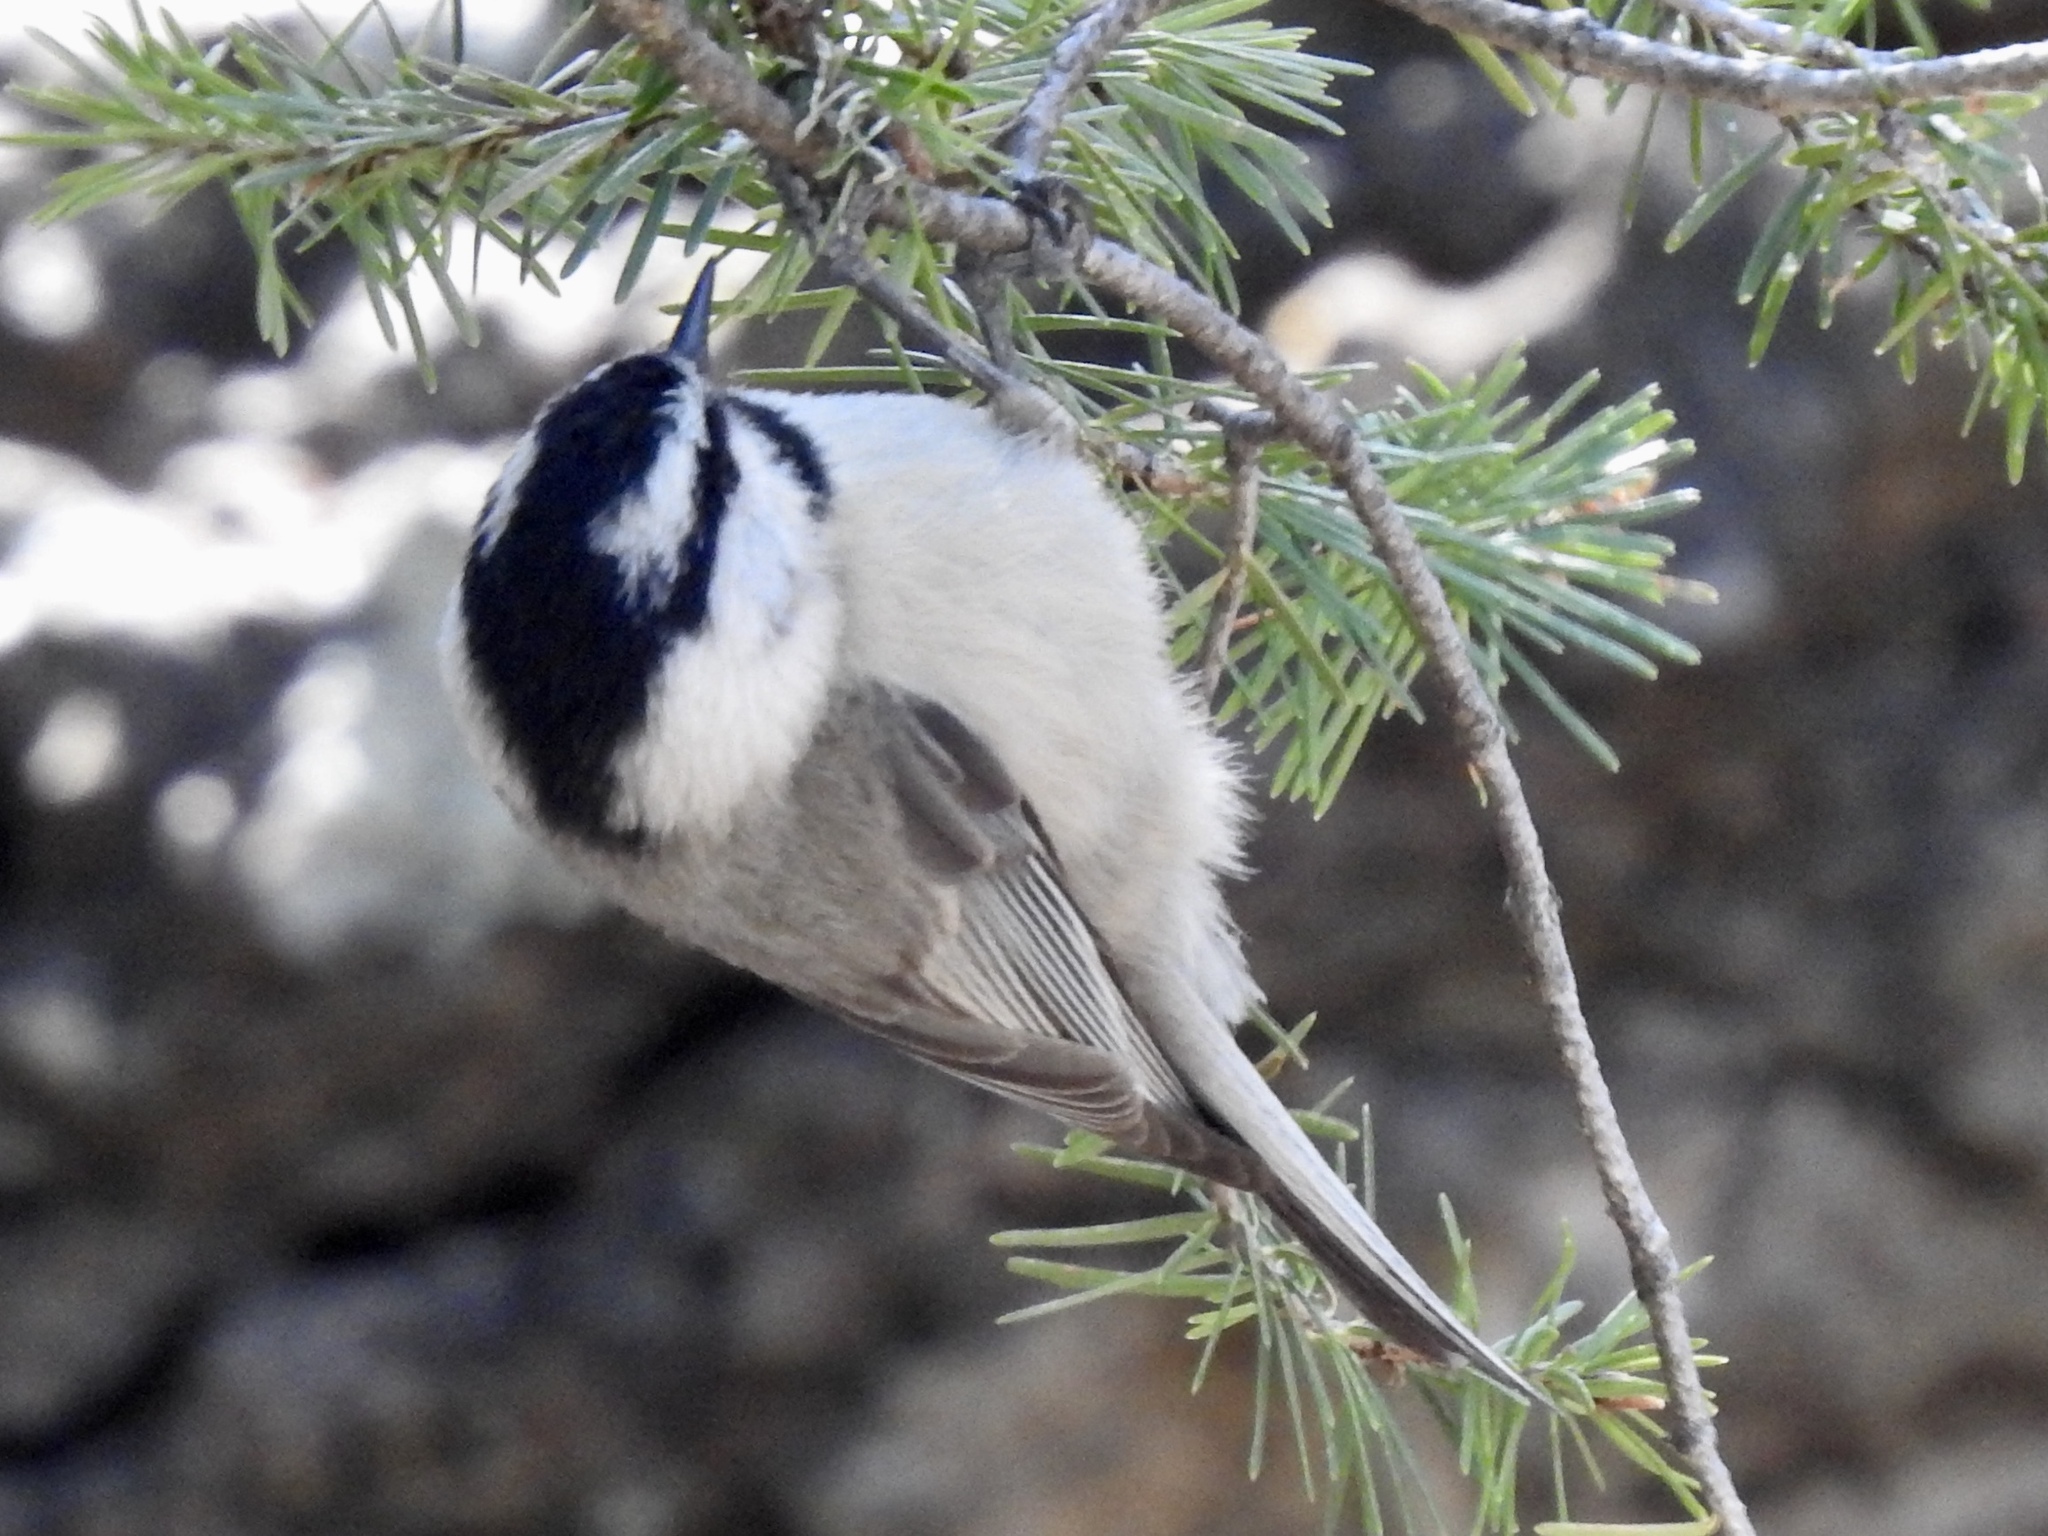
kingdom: Animalia
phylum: Chordata
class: Aves
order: Passeriformes
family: Paridae
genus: Poecile
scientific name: Poecile gambeli
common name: Mountain chickadee
